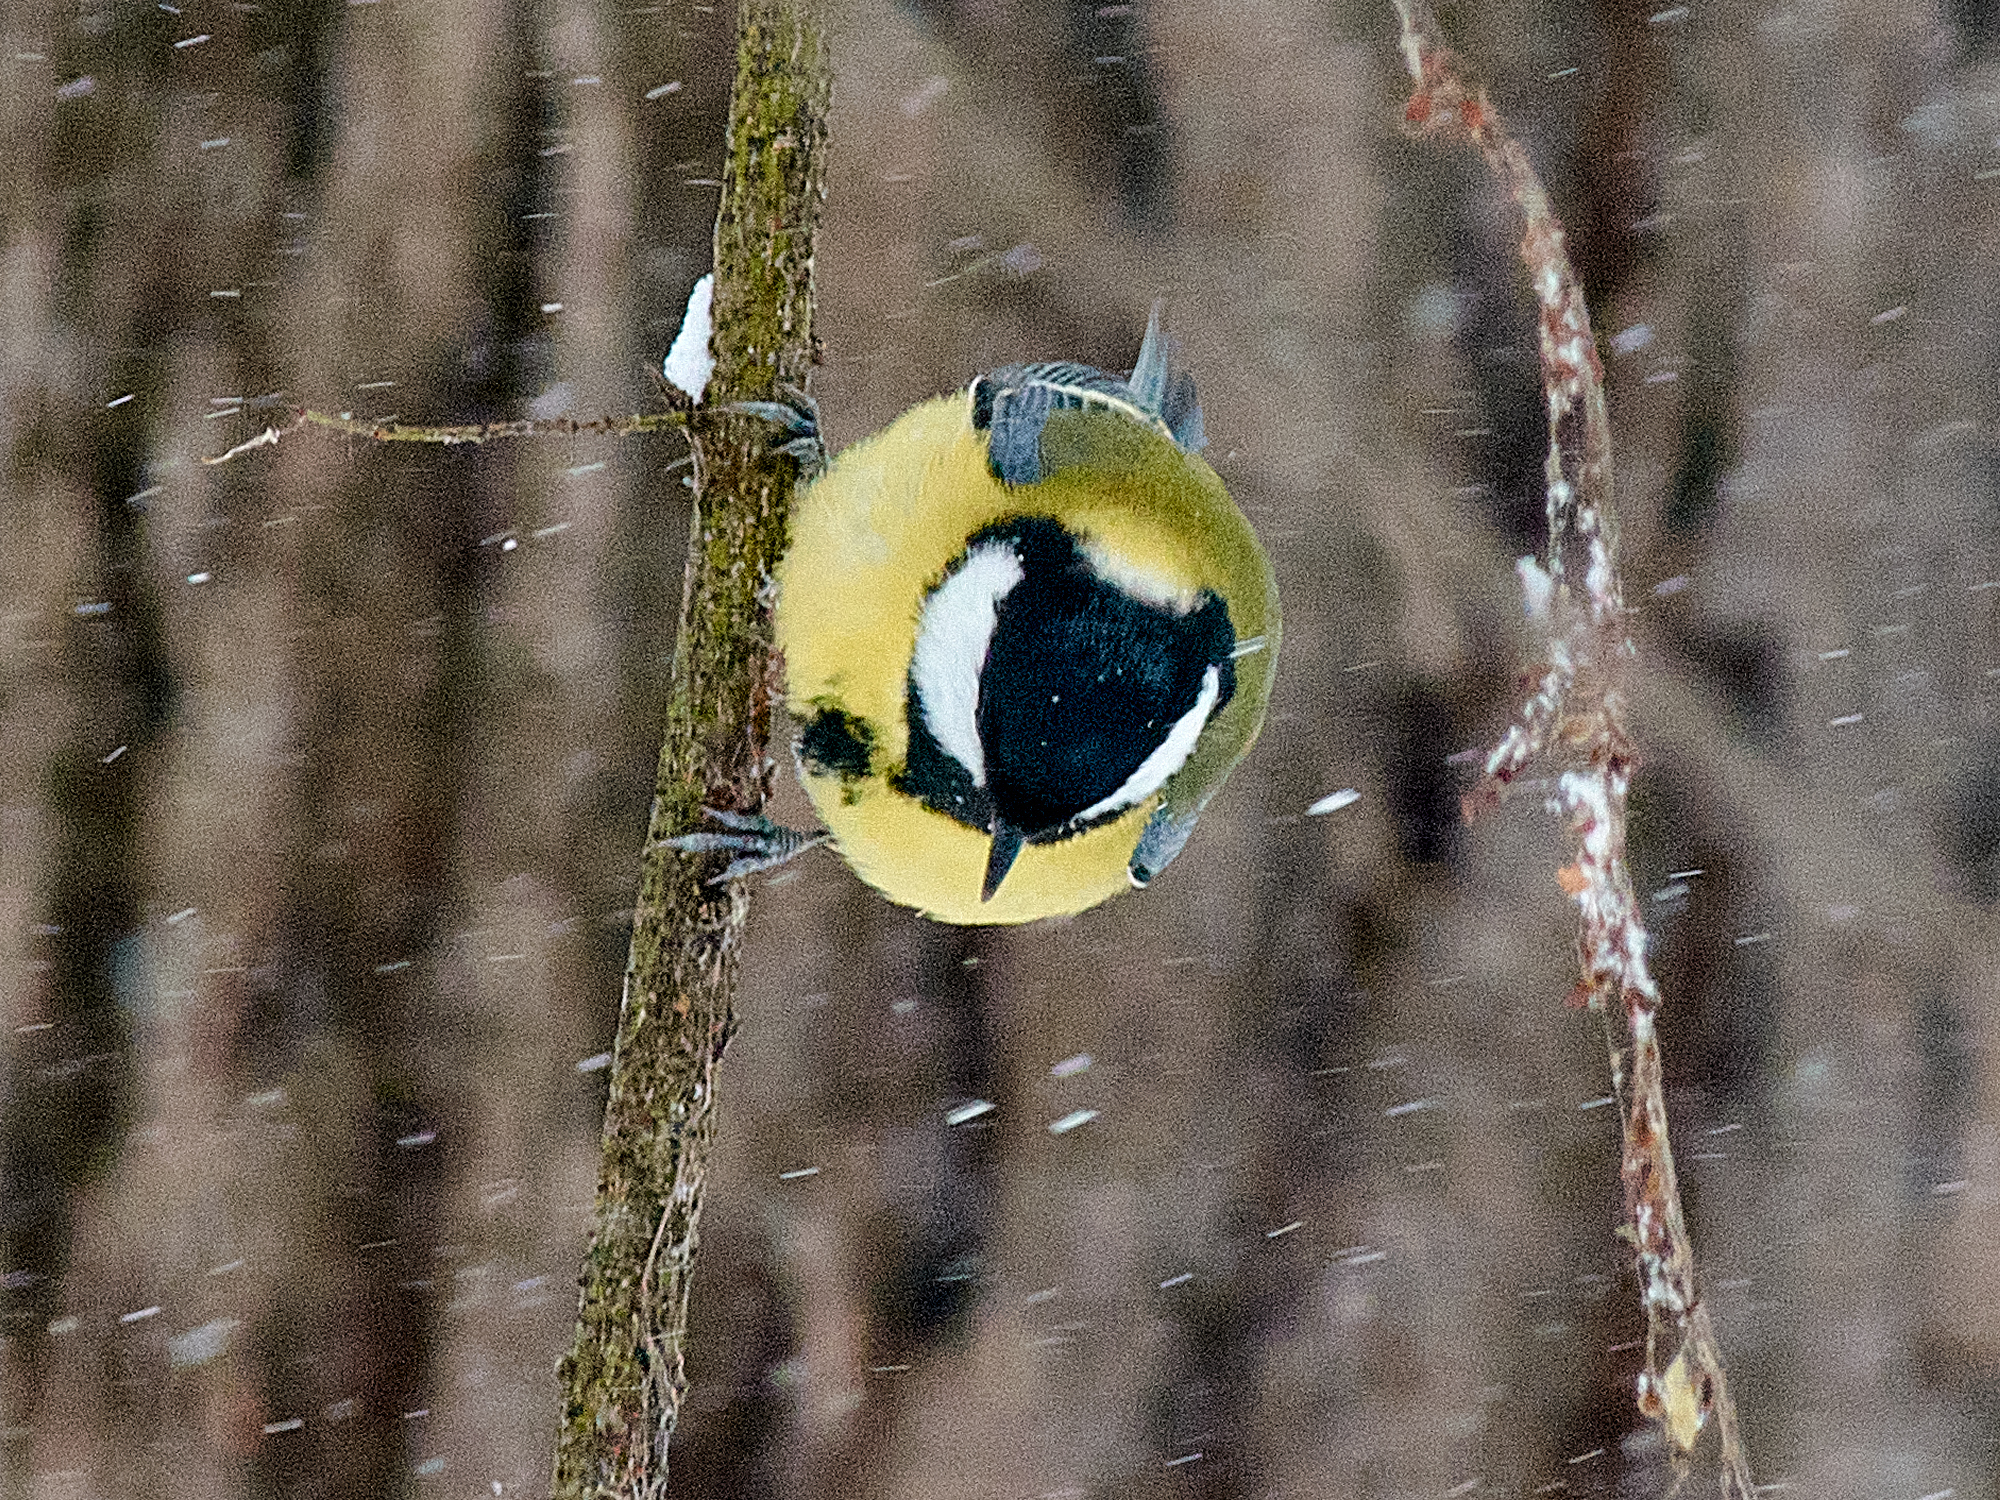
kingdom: Animalia
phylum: Chordata
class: Aves
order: Passeriformes
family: Paridae
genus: Parus
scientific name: Parus major
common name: Great tit
